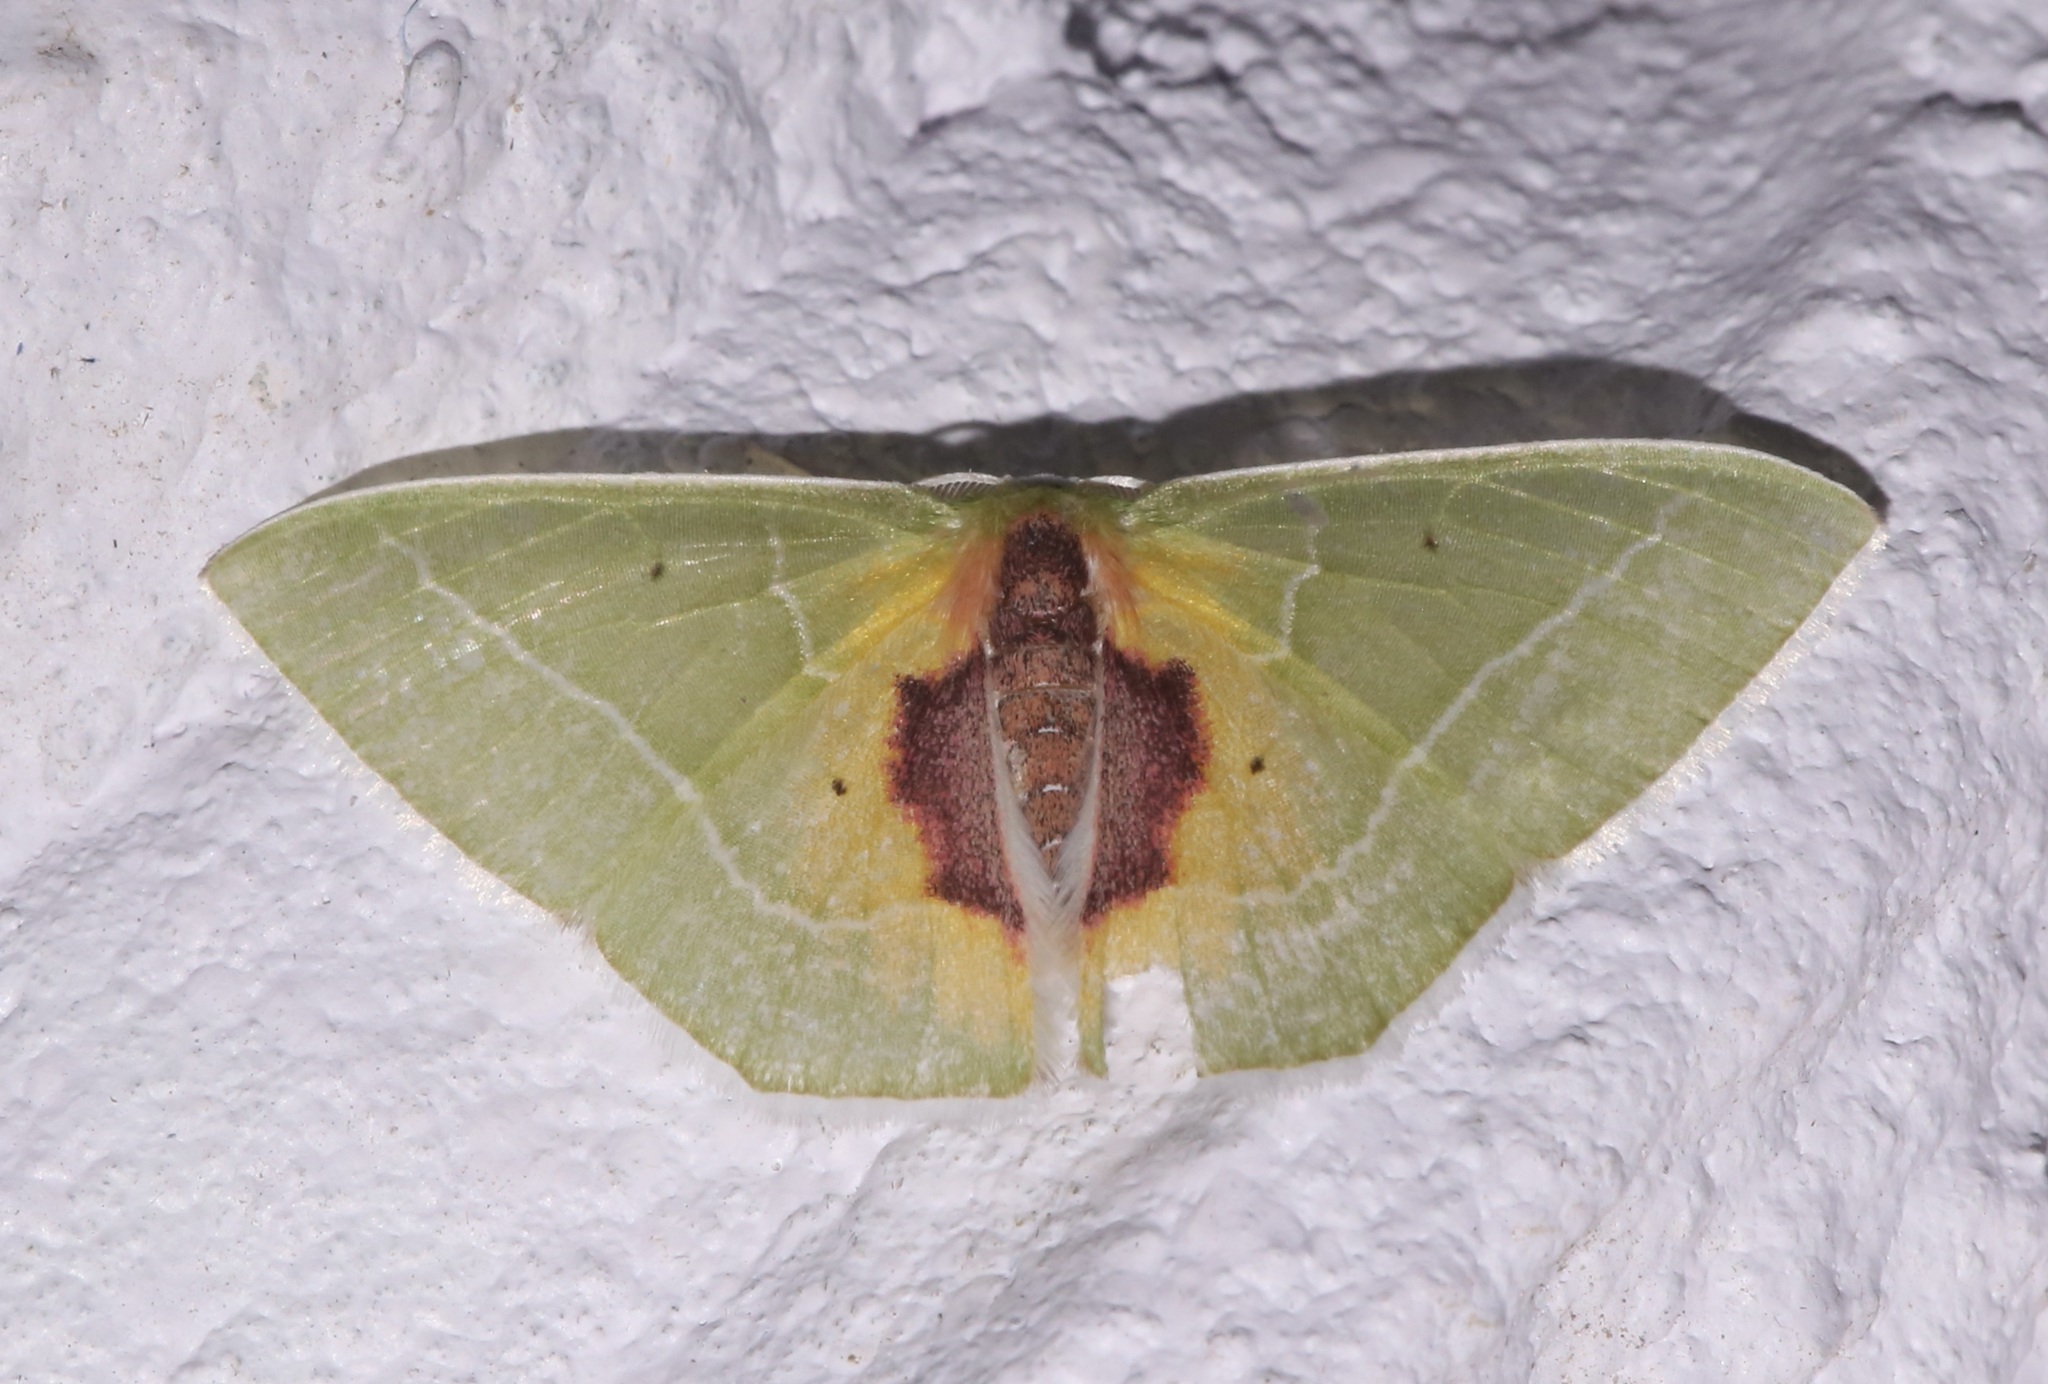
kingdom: Animalia
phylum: Arthropoda
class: Insecta
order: Lepidoptera
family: Geometridae
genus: Nemoria
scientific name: Nemoria astraea
